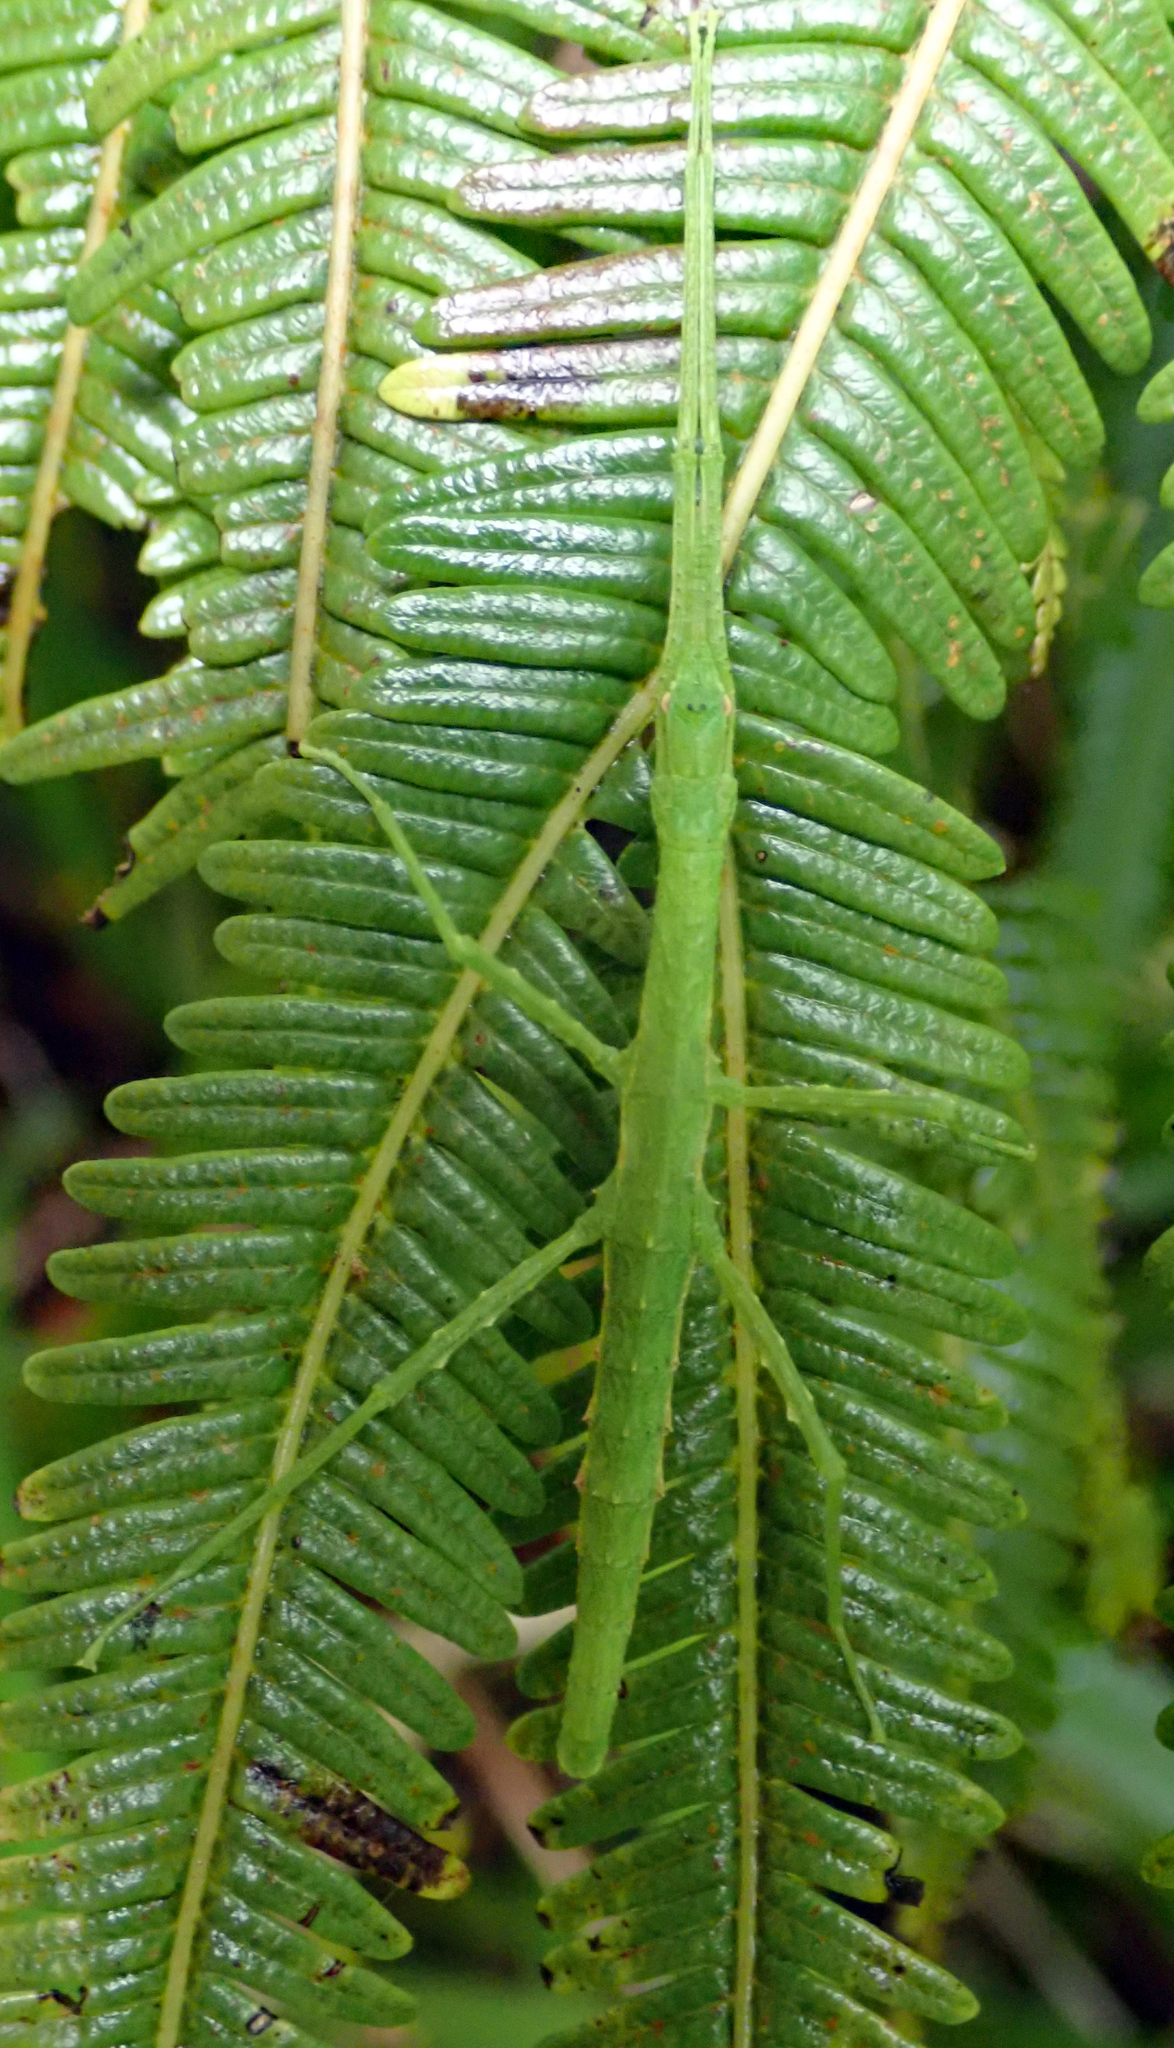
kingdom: Animalia
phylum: Arthropoda
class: Insecta
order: Phasmida
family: Phasmatidae
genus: Spinotectarchus
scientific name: Spinotectarchus acornutus
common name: The spiny ridge-backed stick insect
